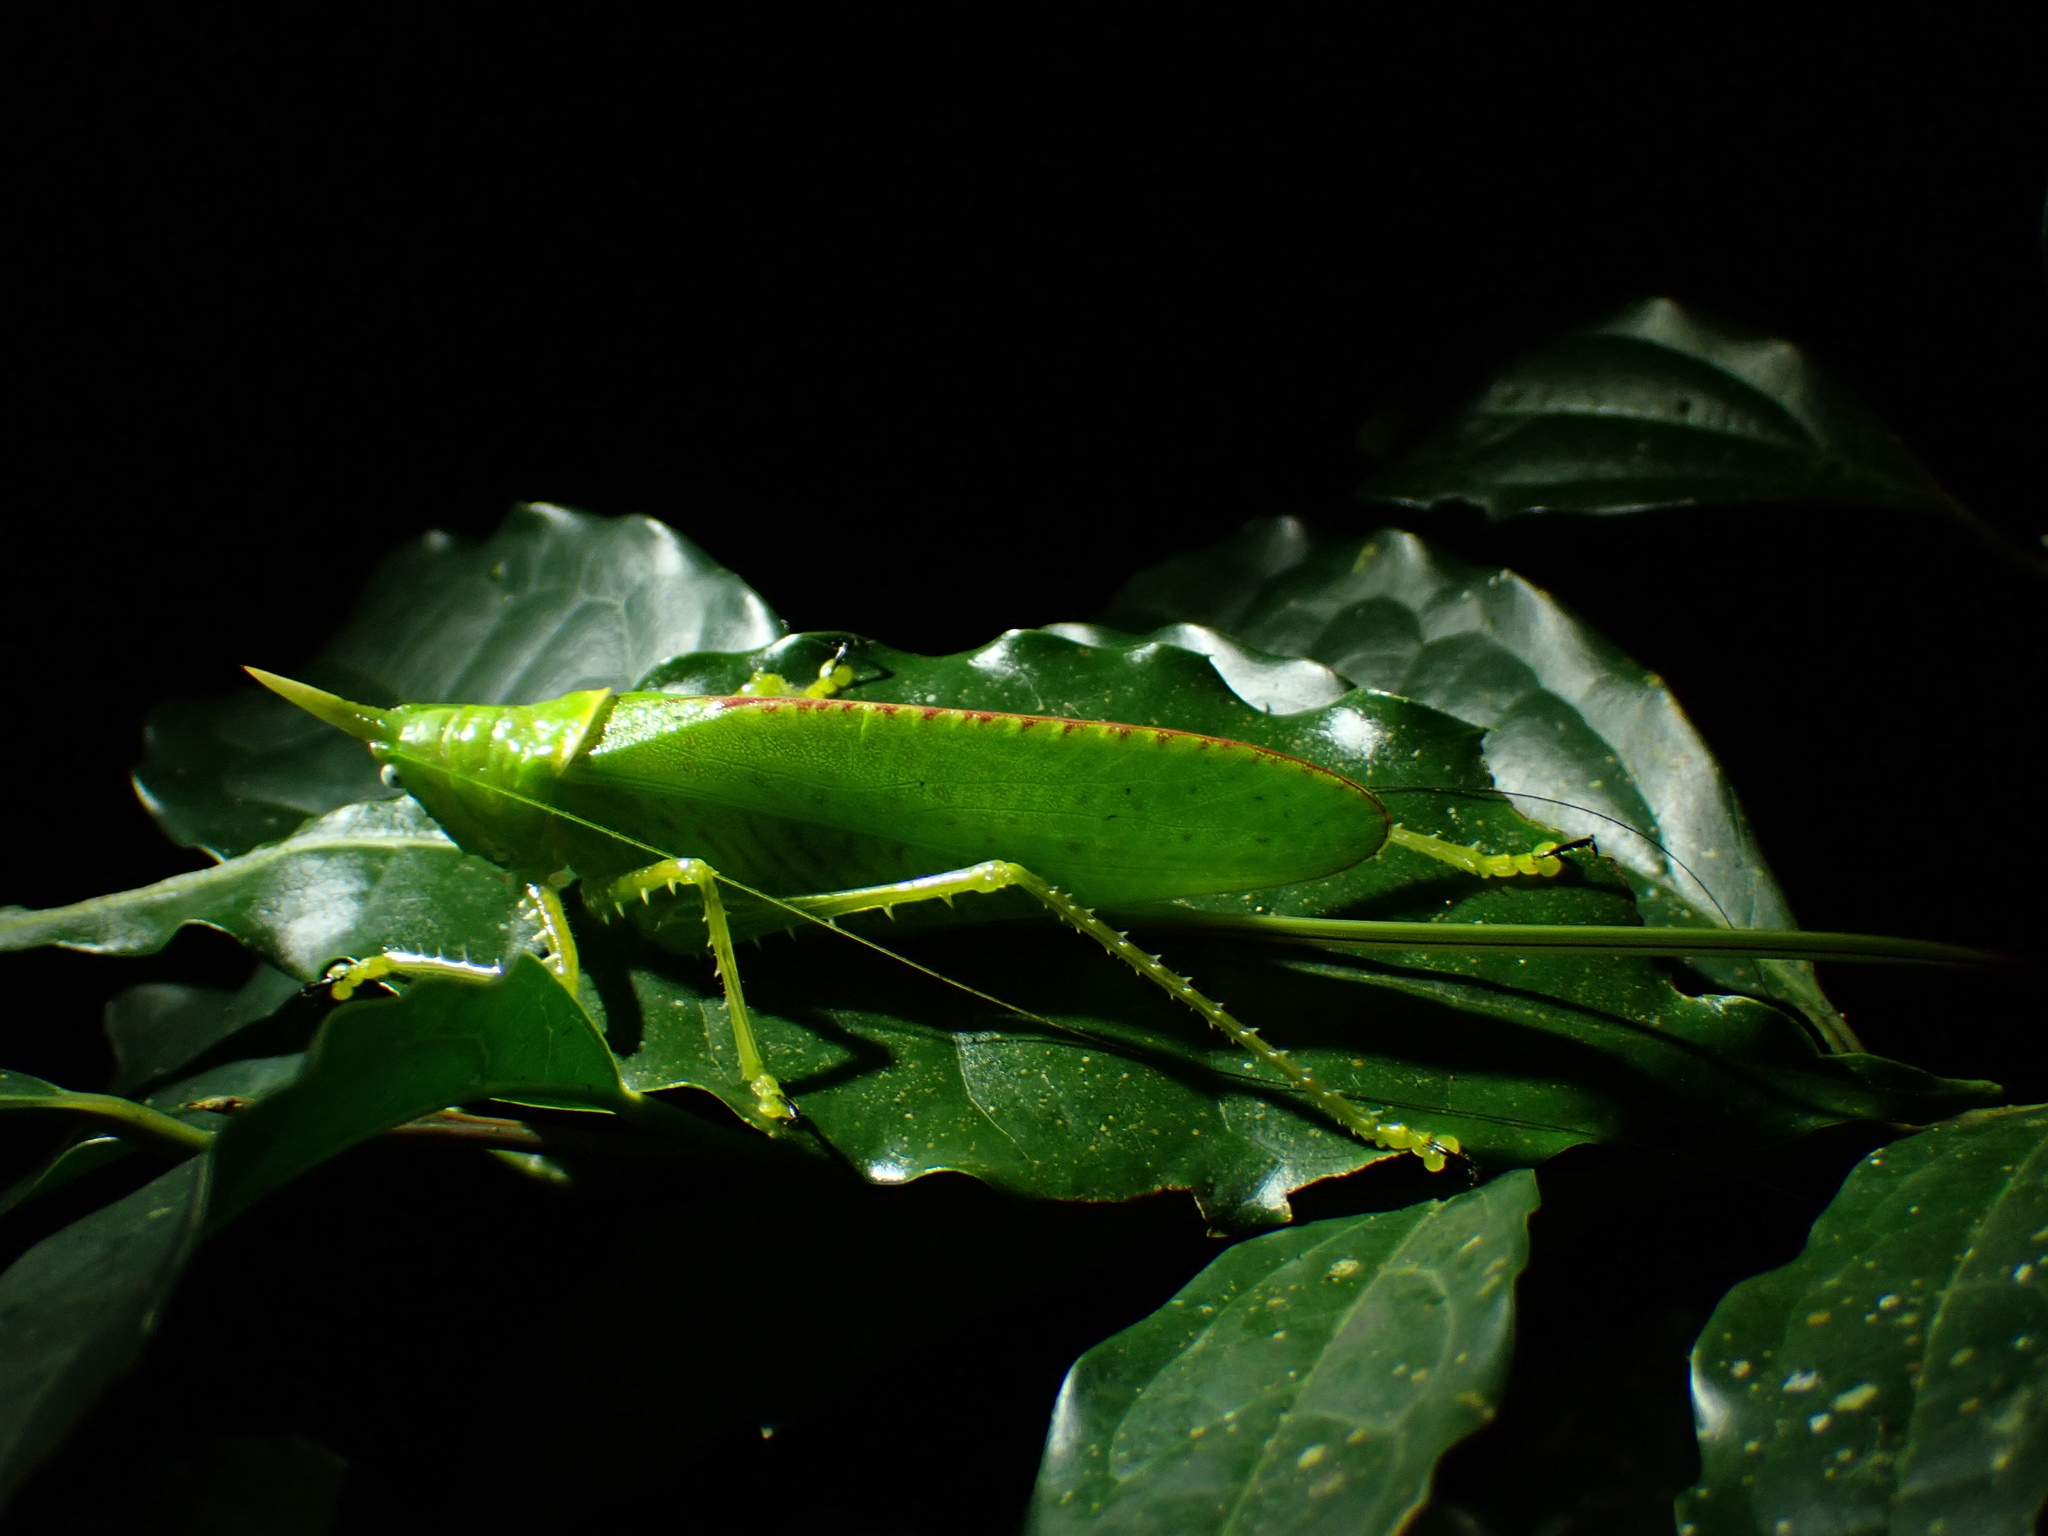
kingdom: Animalia
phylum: Arthropoda
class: Insecta
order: Orthoptera
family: Tettigoniidae
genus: Copiphora
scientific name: Copiphora rhinoceros
